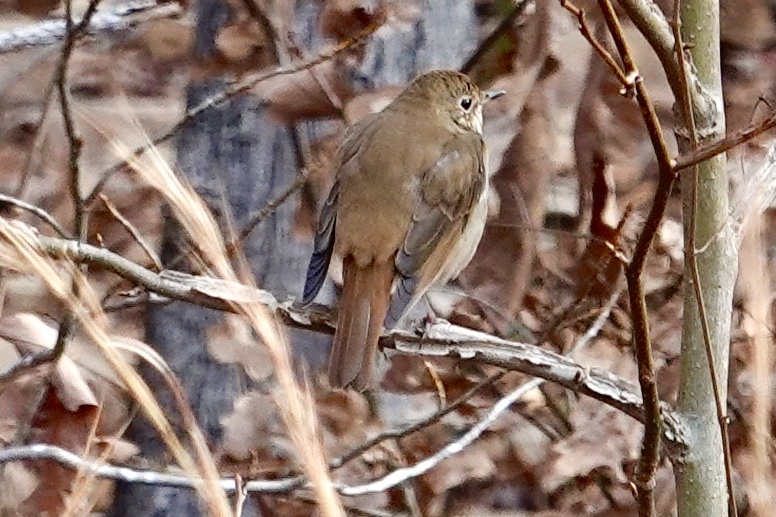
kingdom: Animalia
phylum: Chordata
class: Aves
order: Passeriformes
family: Turdidae
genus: Catharus
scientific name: Catharus guttatus
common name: Hermit thrush
